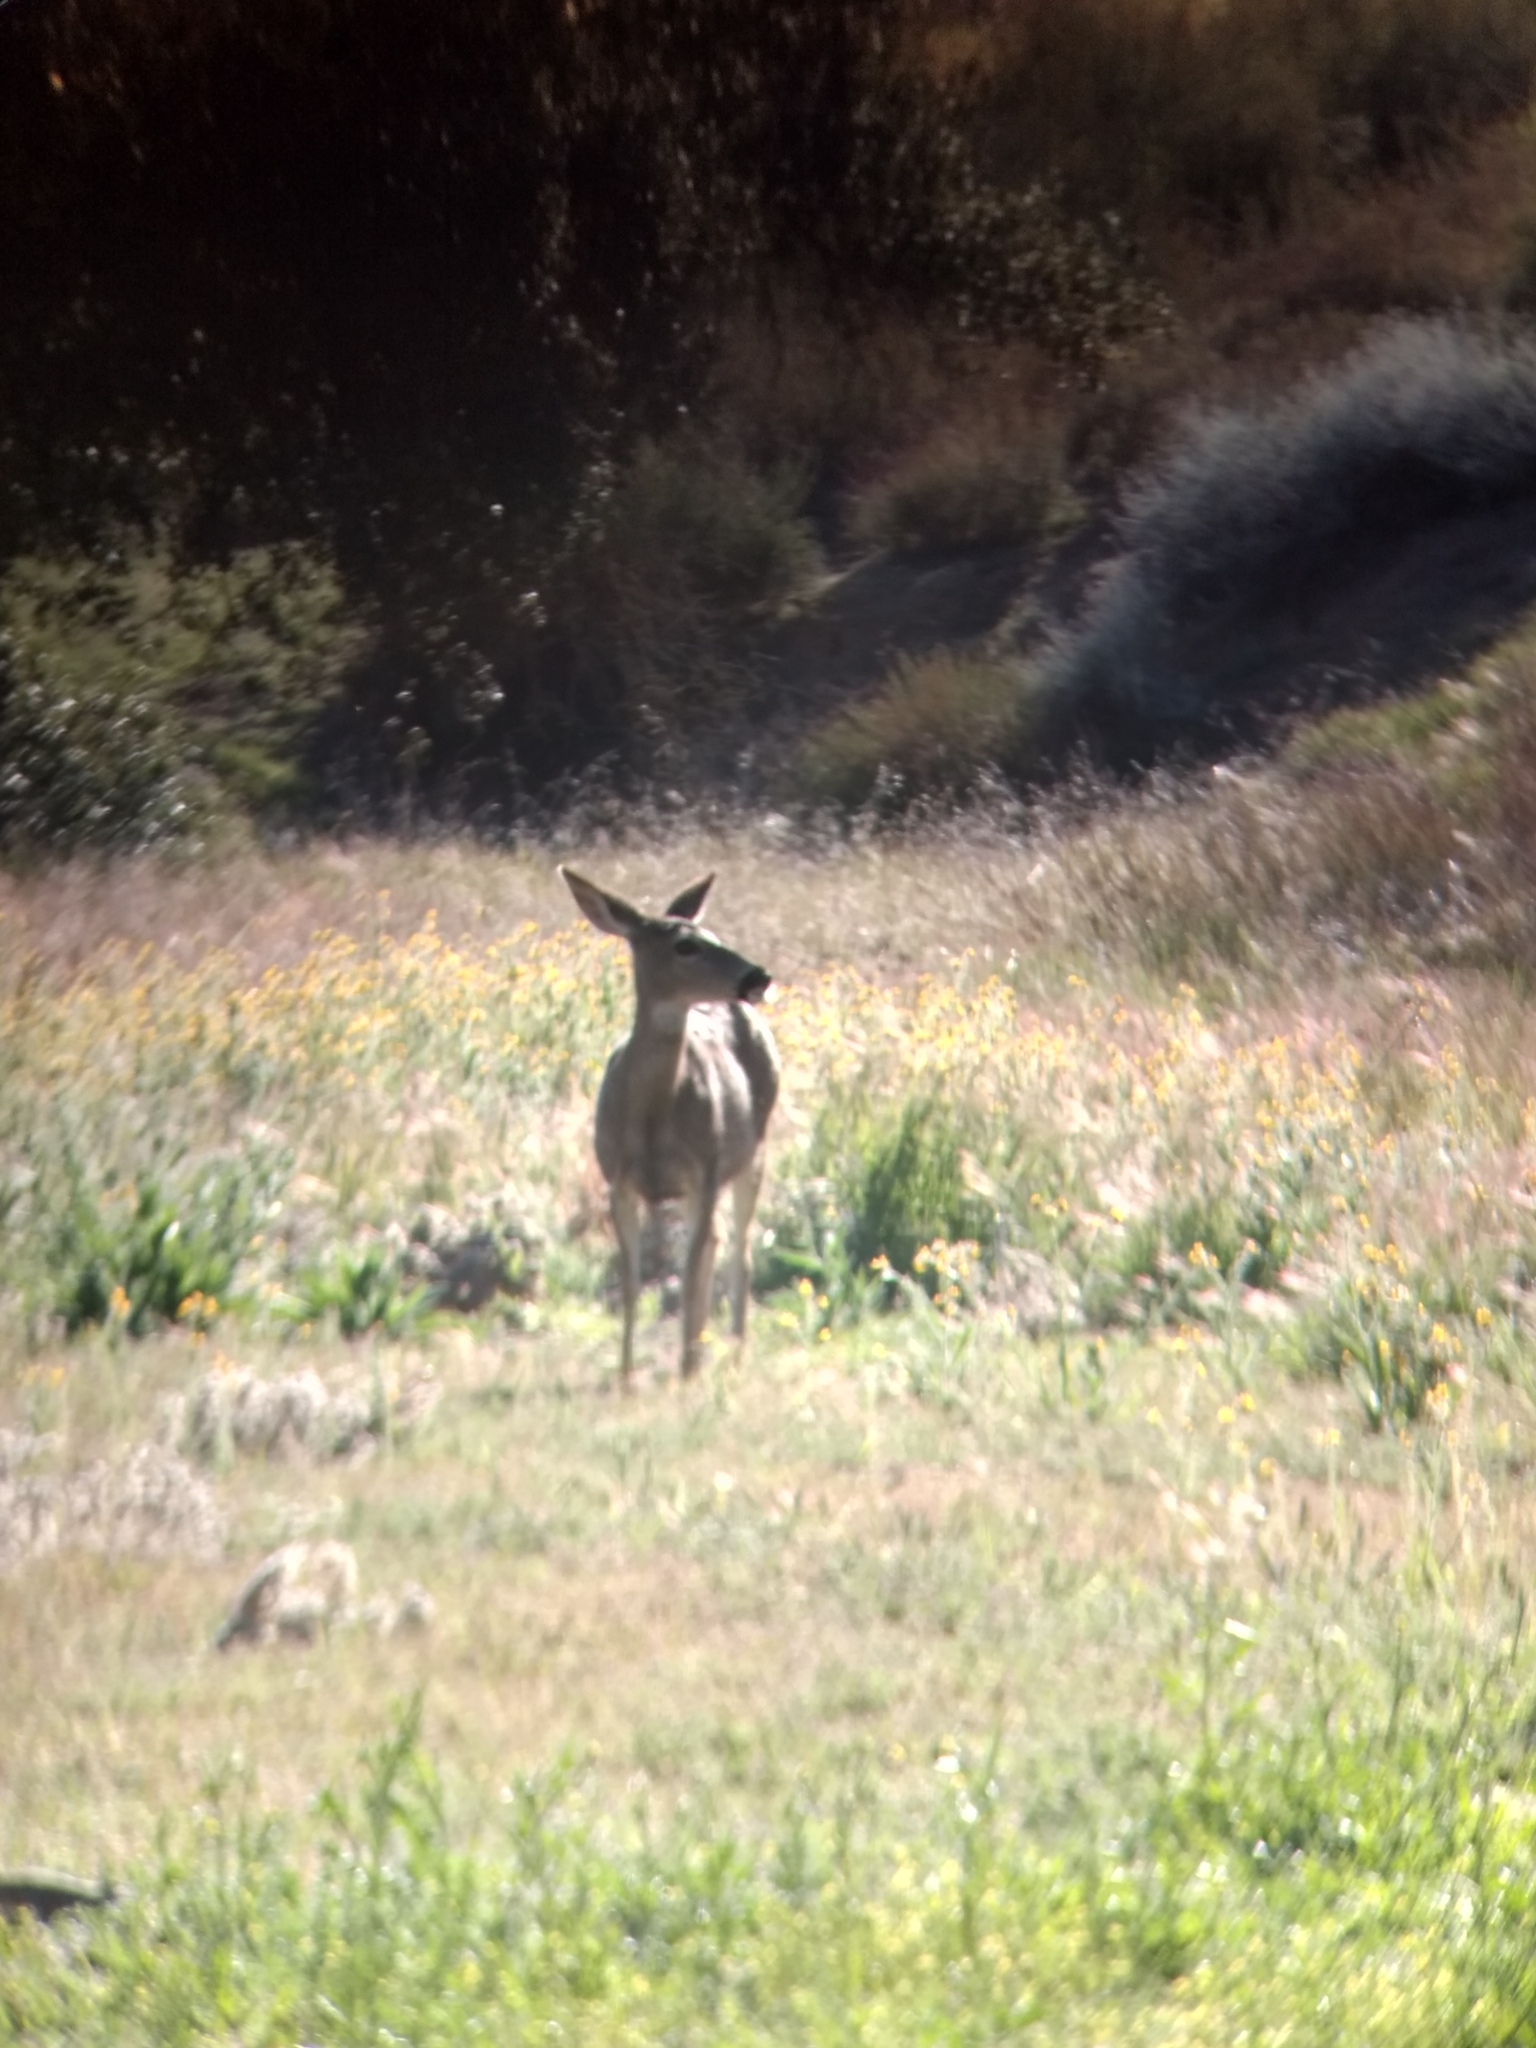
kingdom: Animalia
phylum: Chordata
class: Mammalia
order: Artiodactyla
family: Cervidae
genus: Odocoileus
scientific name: Odocoileus hemionus
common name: Mule deer
